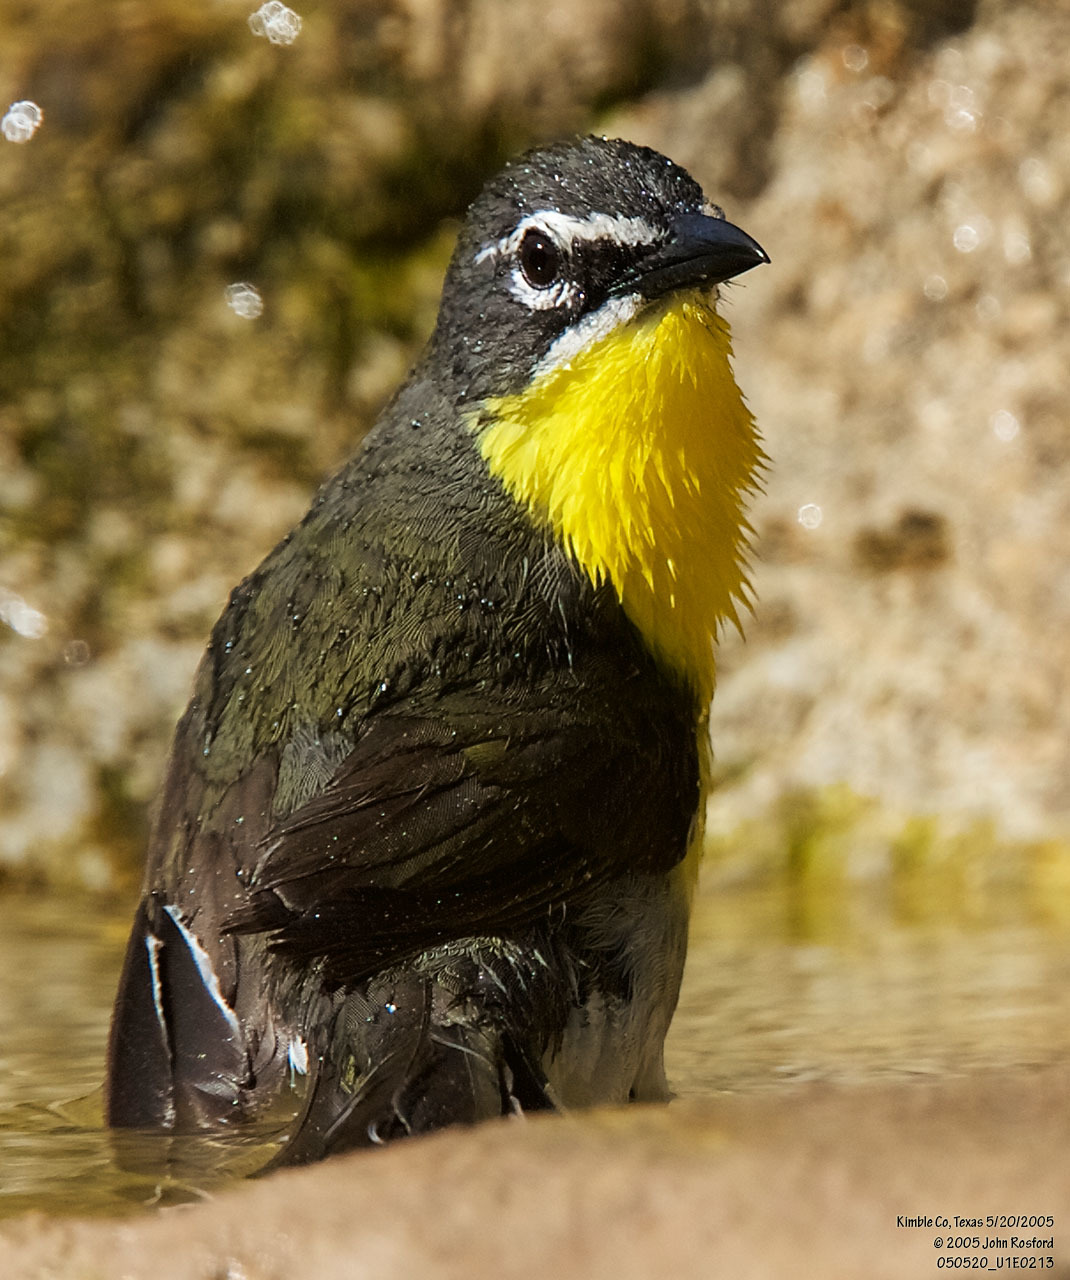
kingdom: Animalia
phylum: Chordata
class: Aves
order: Passeriformes
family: Parulidae
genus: Icteria
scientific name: Icteria virens
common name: Yellow-breasted chat
